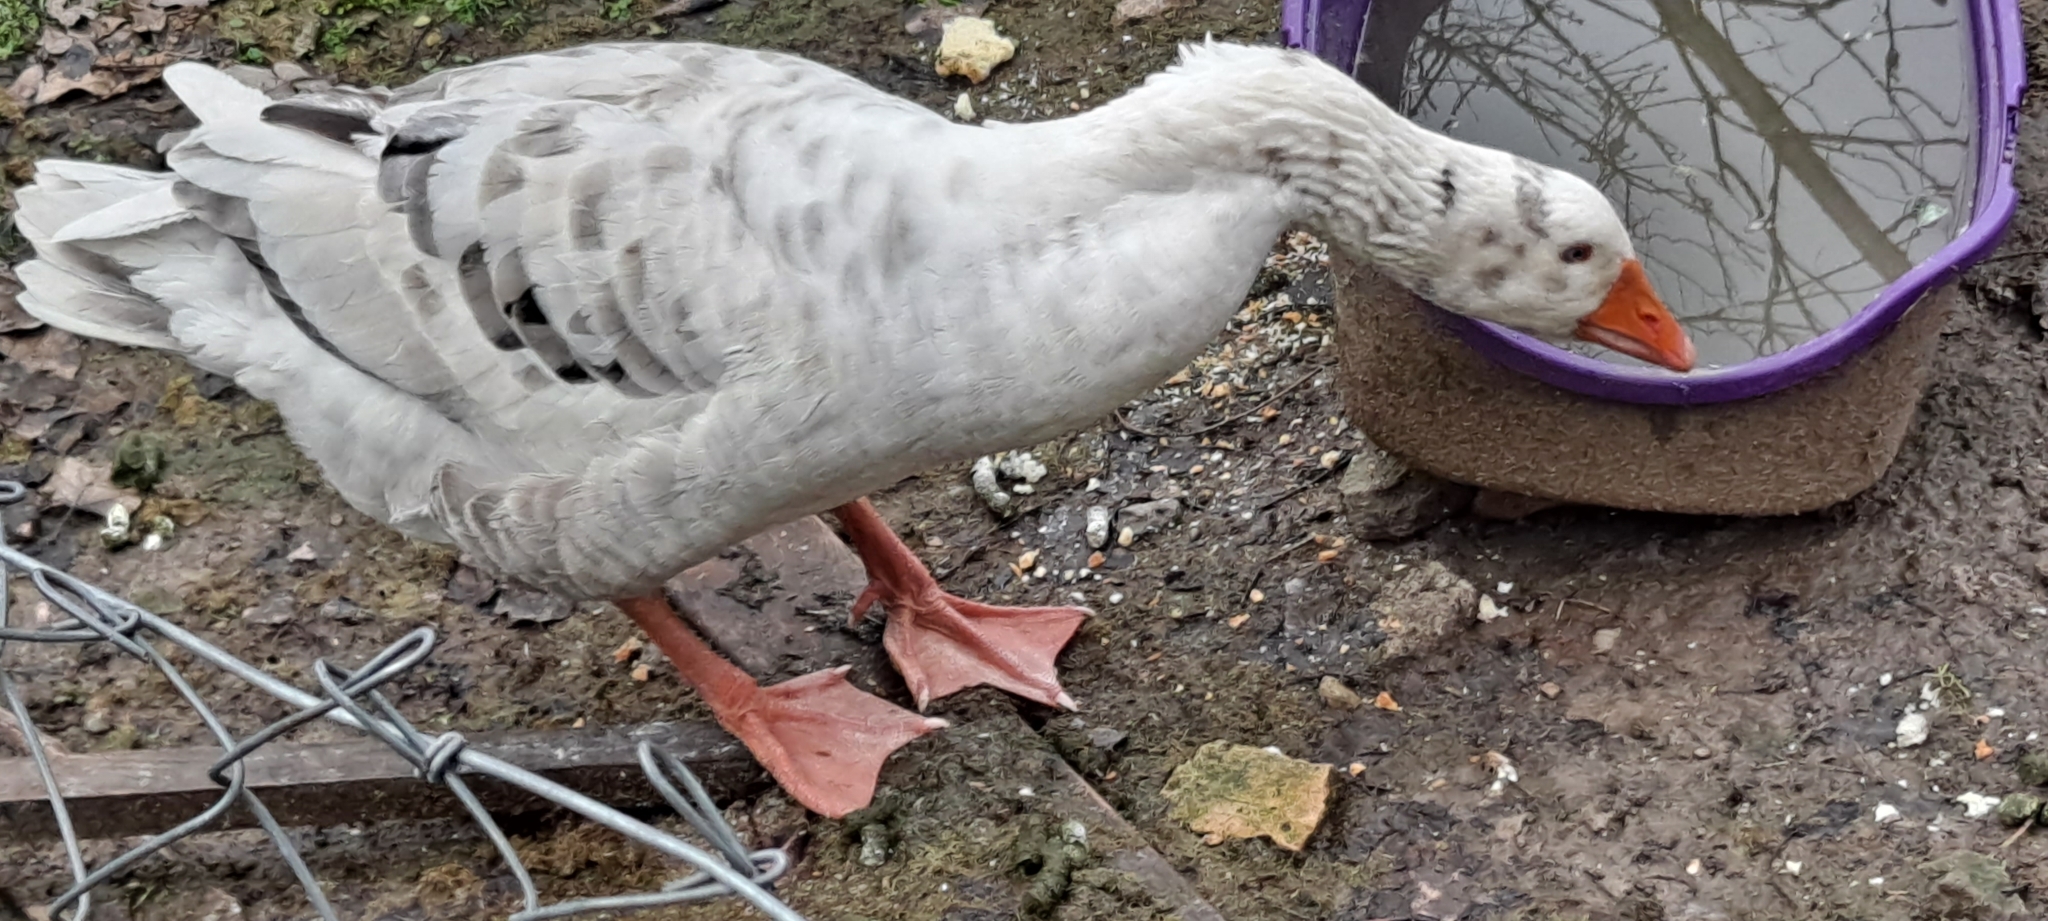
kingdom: Animalia
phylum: Chordata
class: Aves
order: Anseriformes
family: Anatidae
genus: Anser
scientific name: Anser anser
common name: Greylag goose
